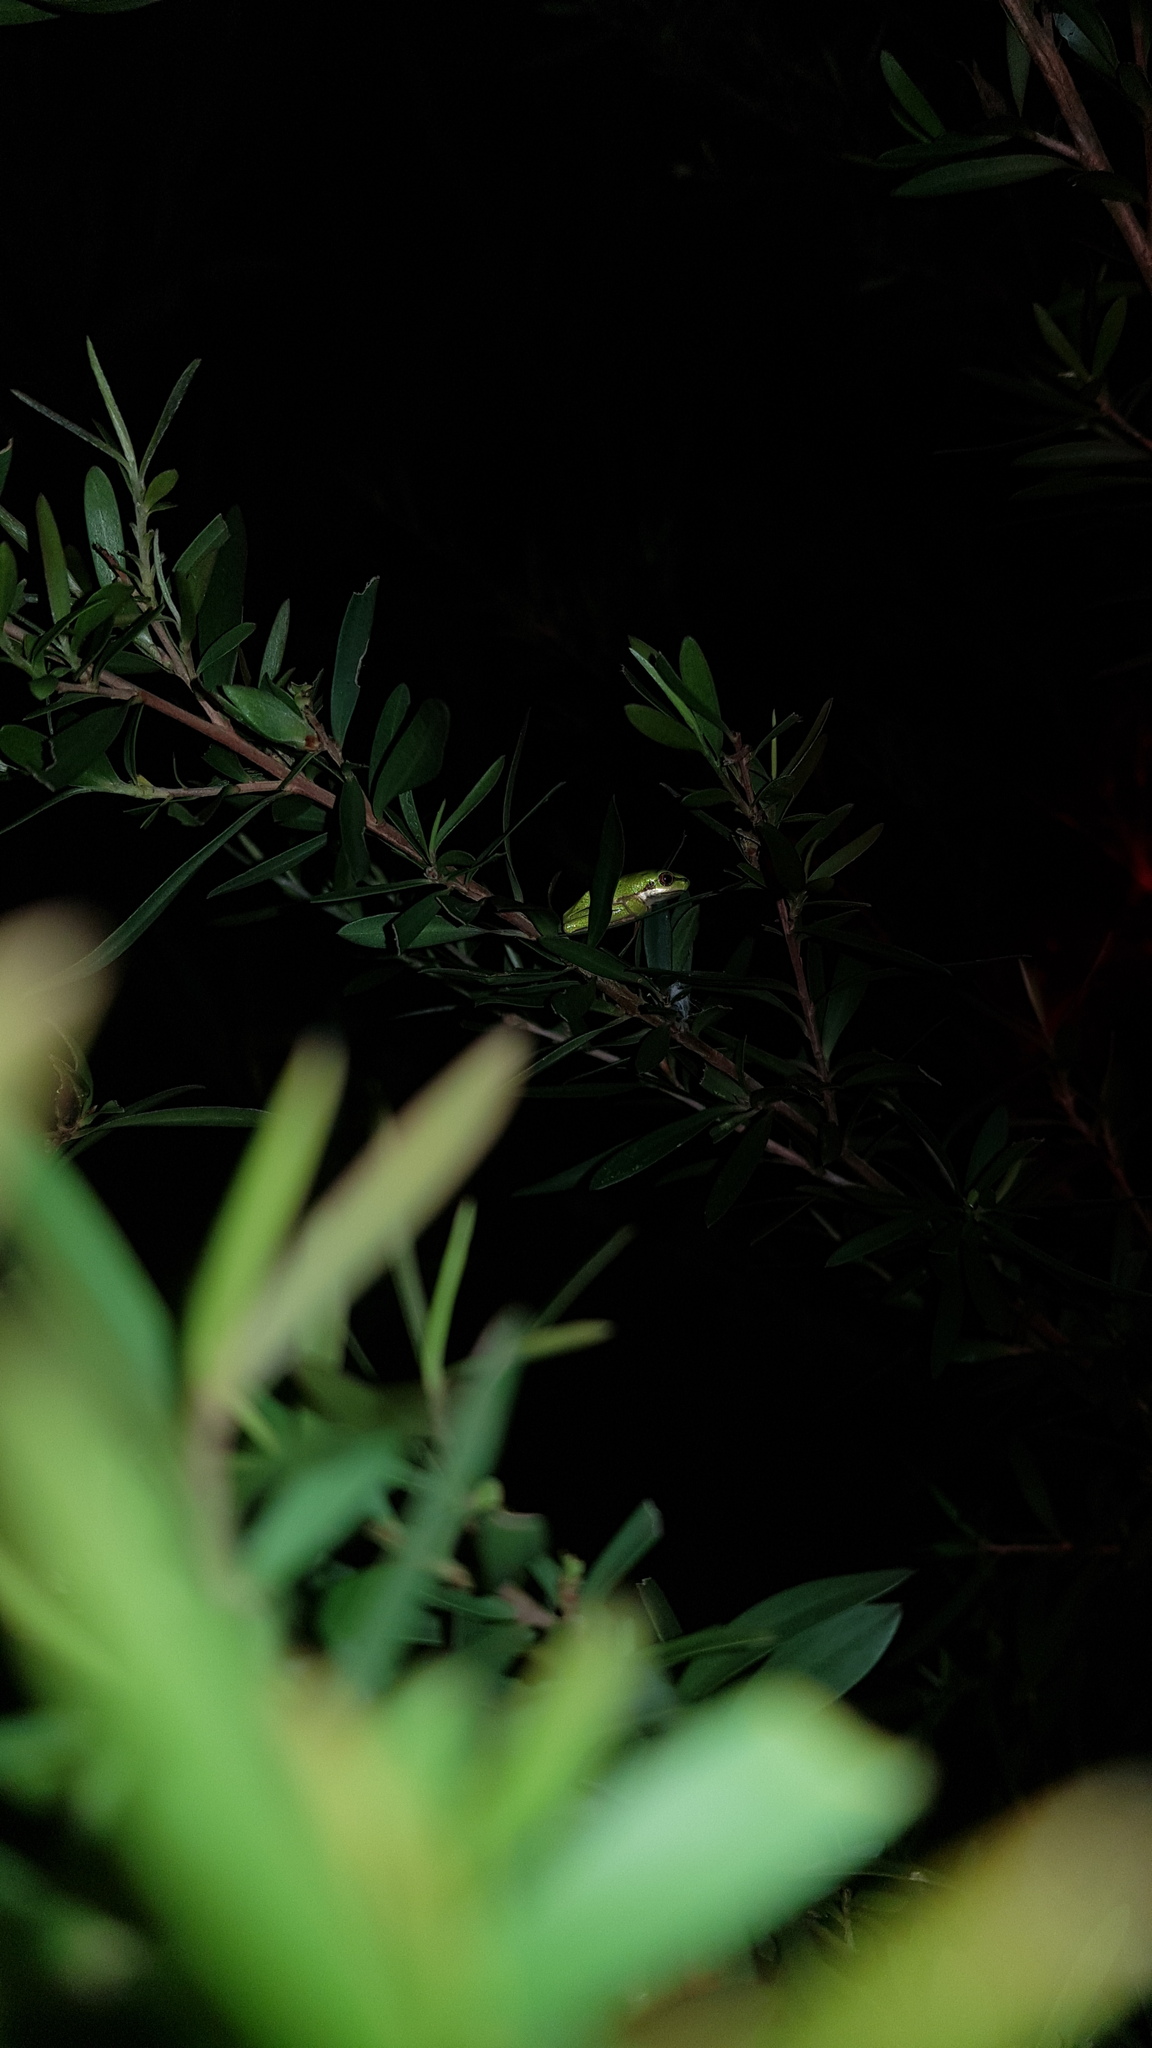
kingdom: Animalia
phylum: Chordata
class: Amphibia
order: Anura
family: Pelodryadidae
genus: Litoria
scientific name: Litoria fallax
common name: Eastern dwarf treefrog
